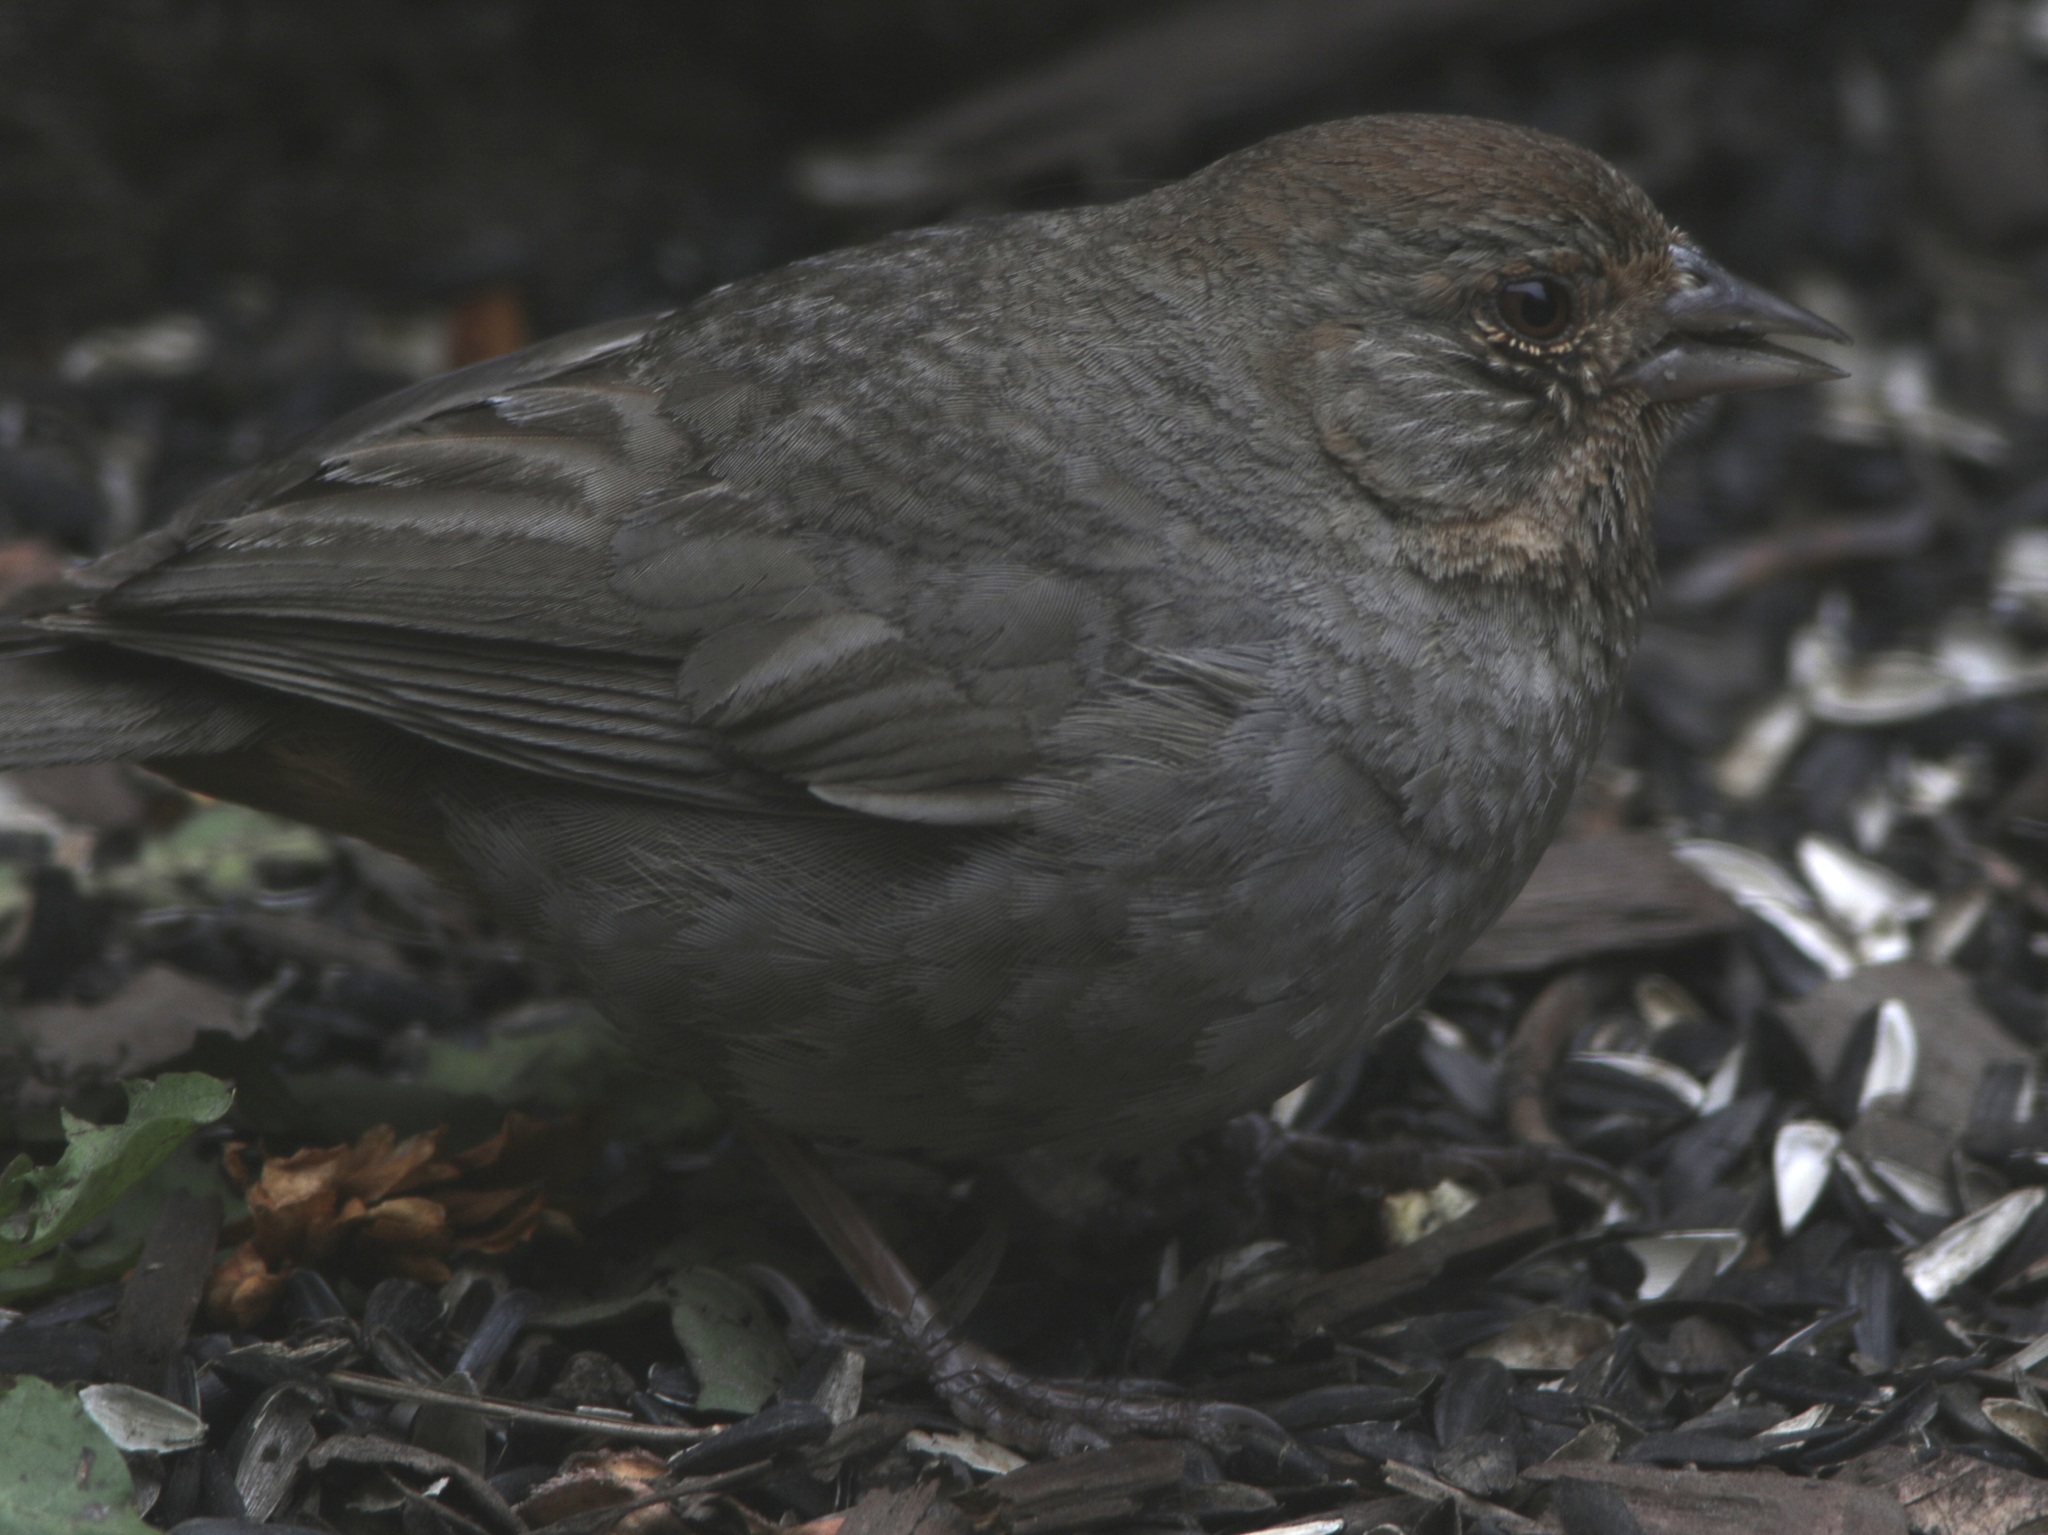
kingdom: Animalia
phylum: Chordata
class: Aves
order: Passeriformes
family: Passerellidae
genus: Melozone
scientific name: Melozone crissalis
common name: California towhee
